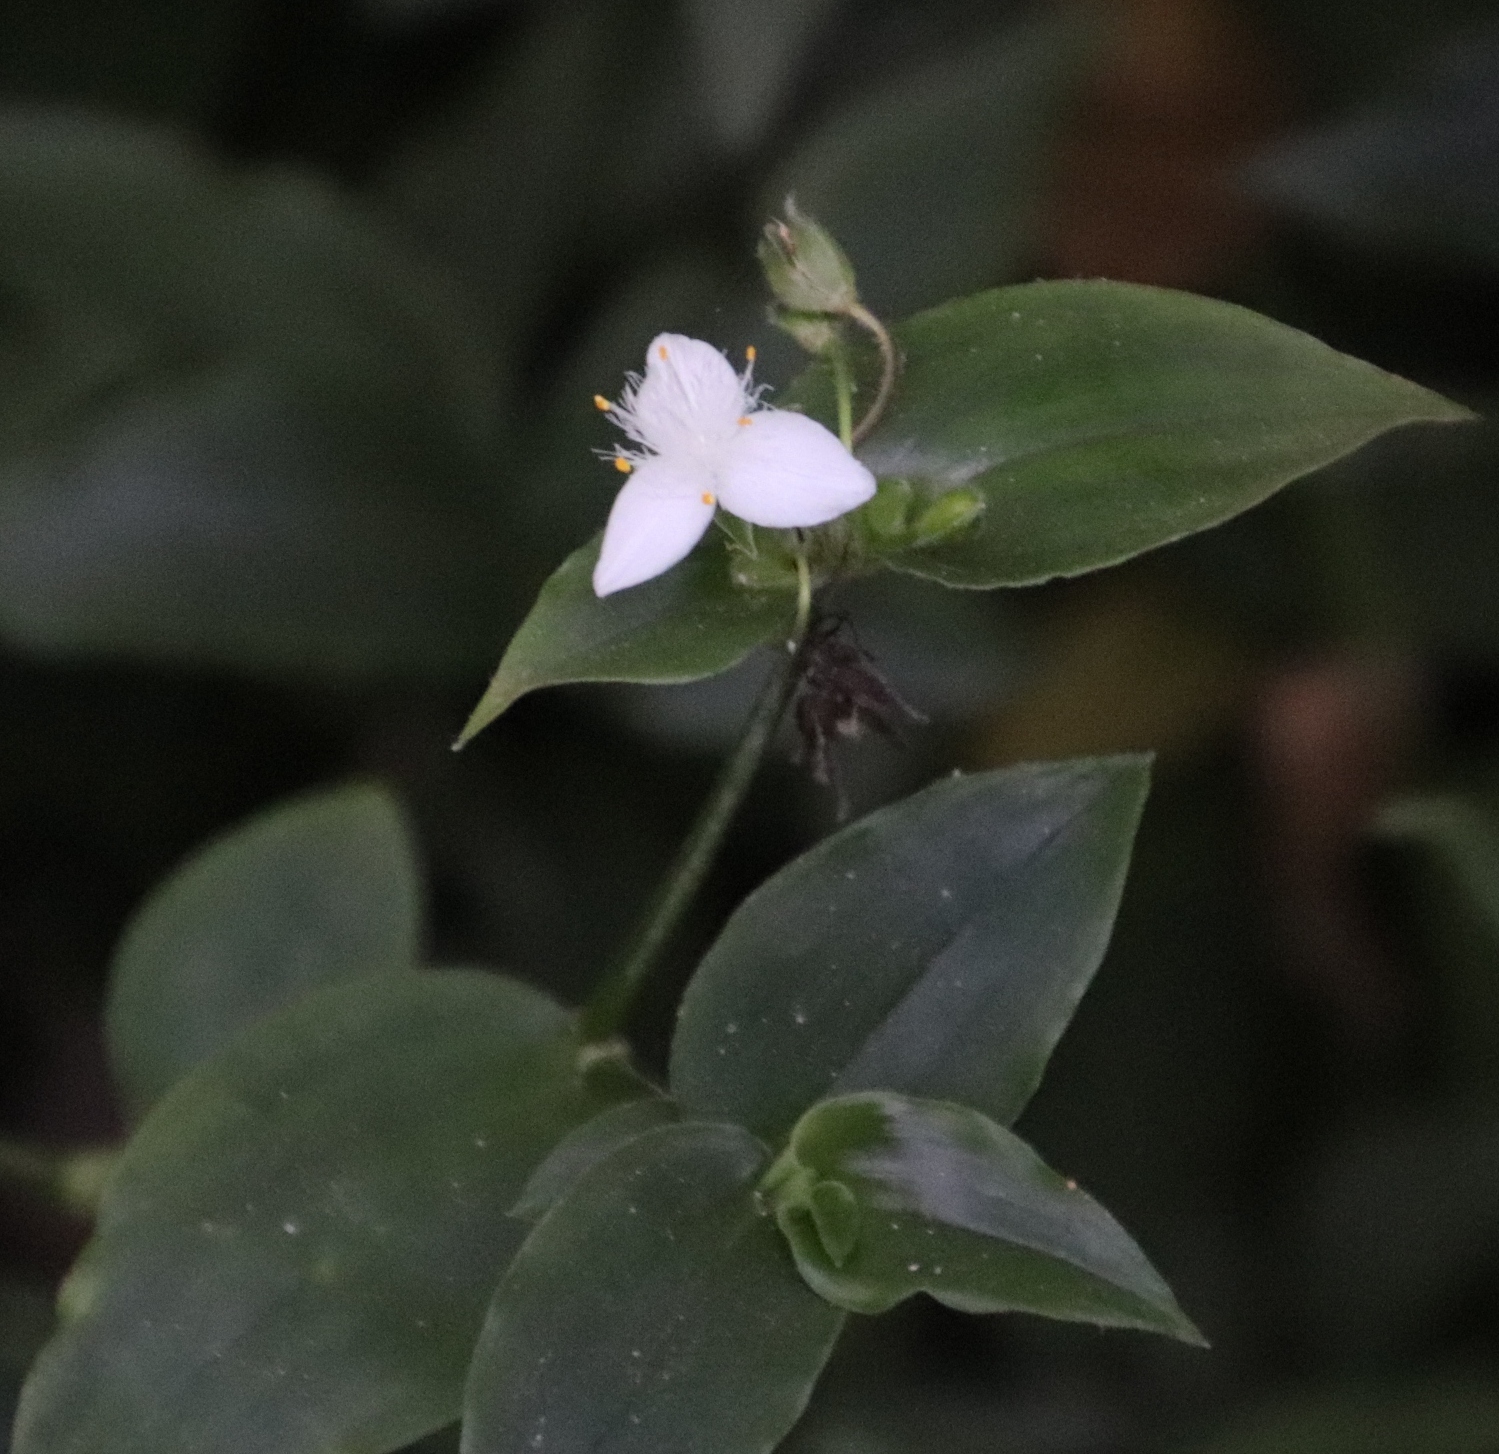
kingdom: Plantae
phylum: Tracheophyta
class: Liliopsida
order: Commelinales
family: Commelinaceae
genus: Tradescantia
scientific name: Tradescantia fluminensis
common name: Wandering-jew
